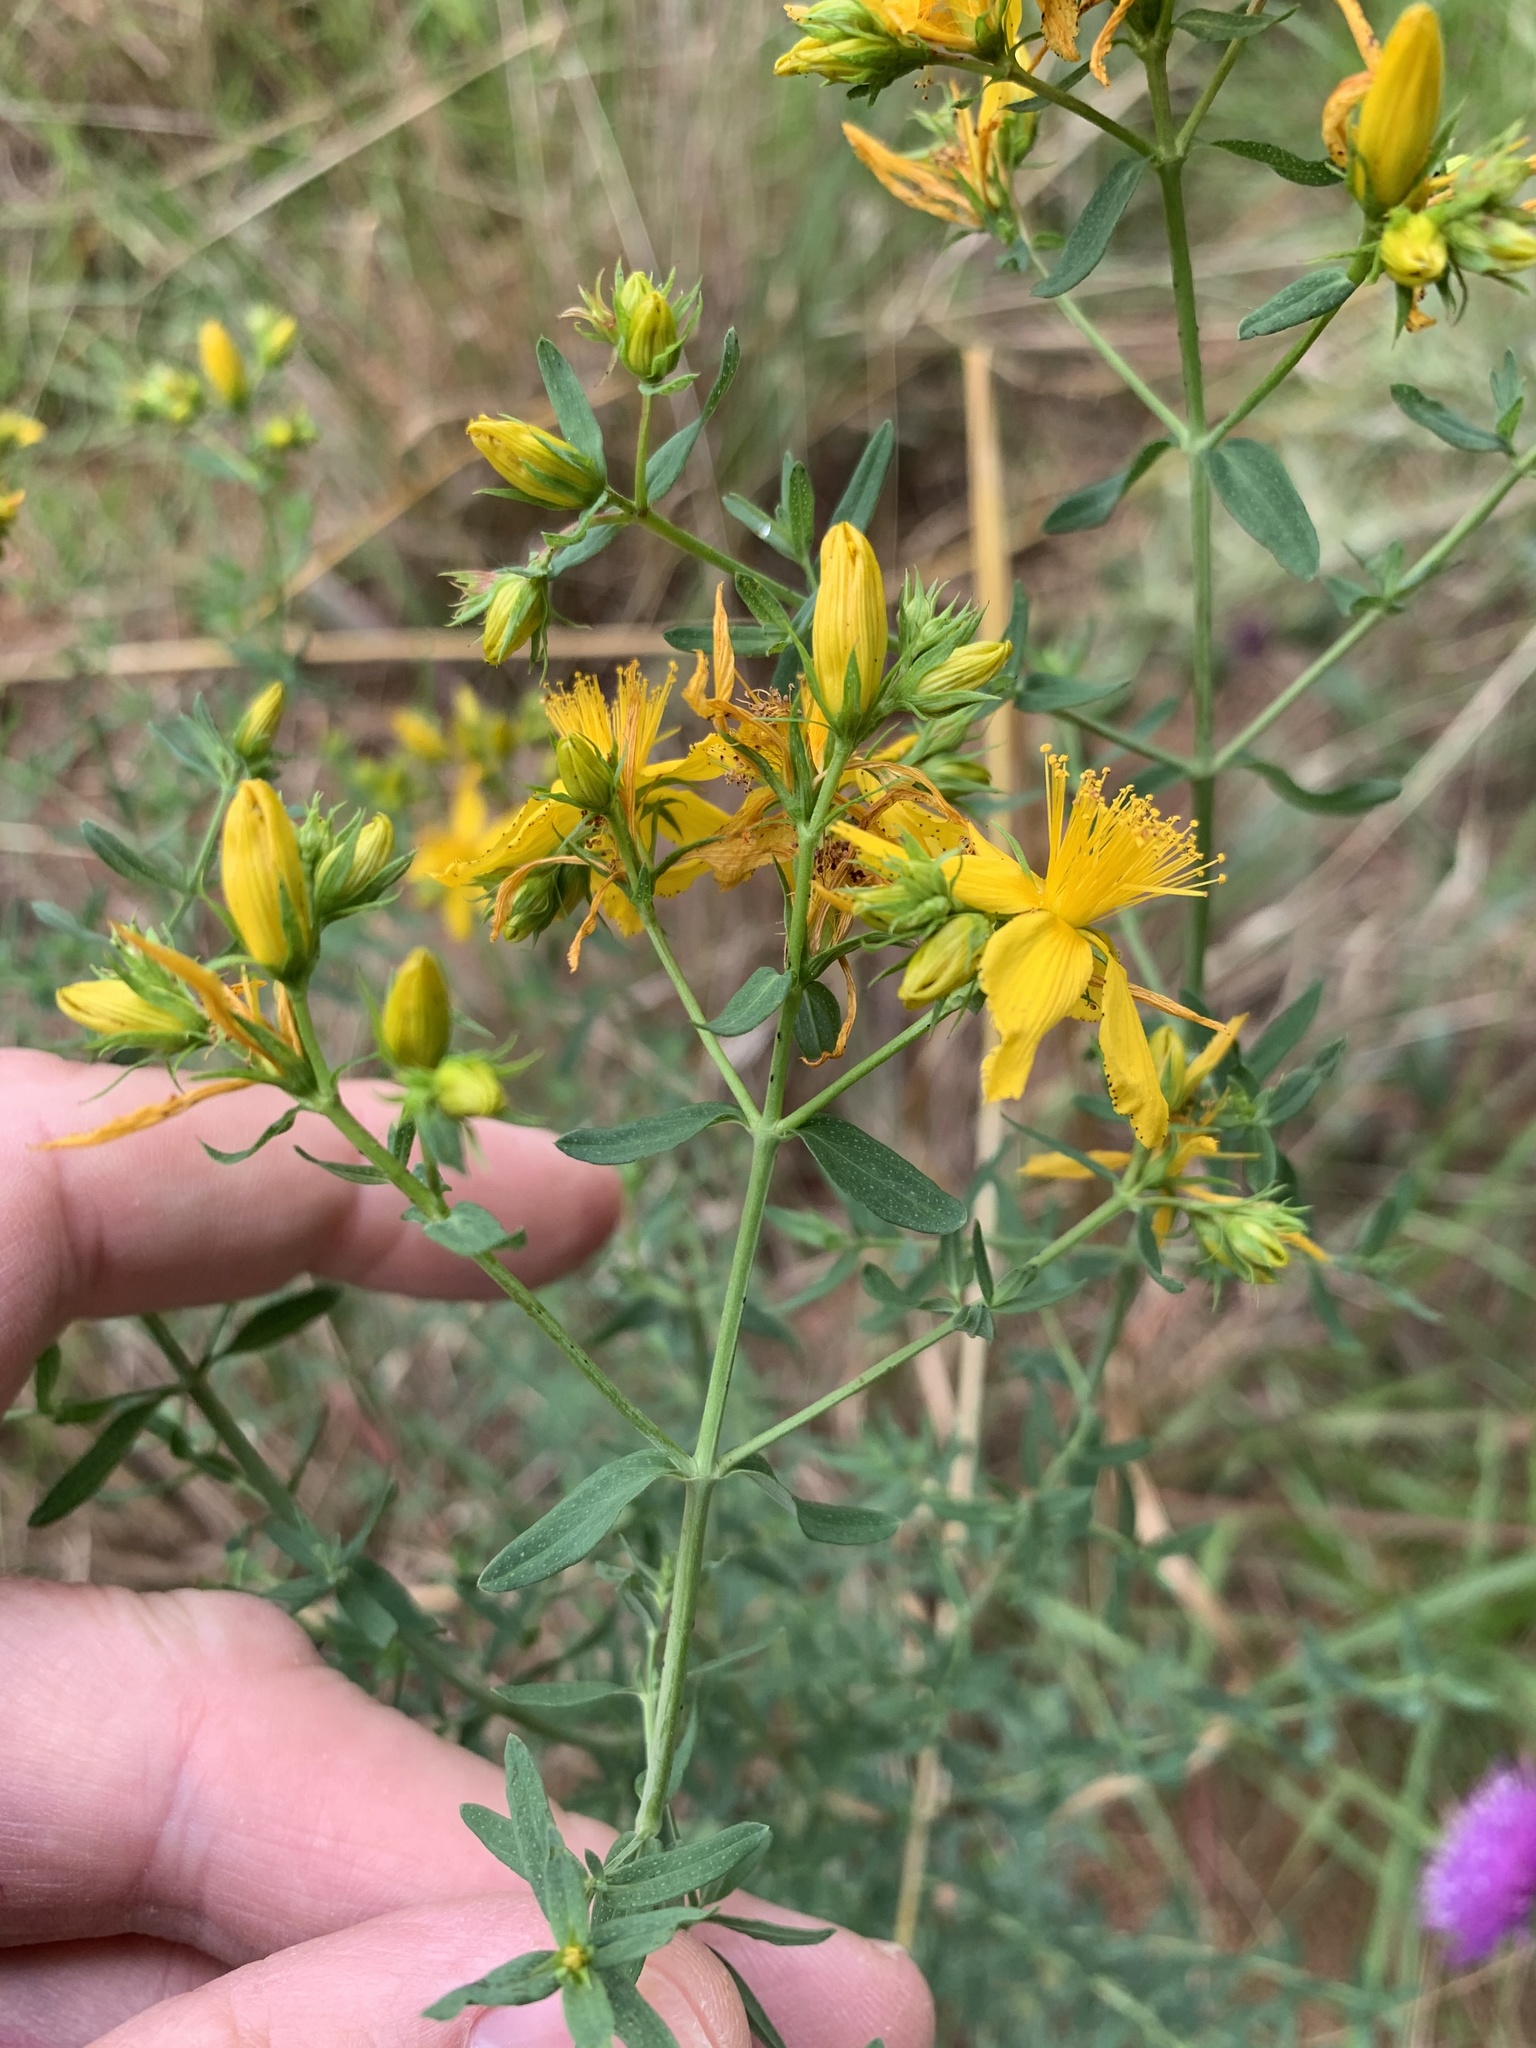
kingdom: Plantae
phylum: Tracheophyta
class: Magnoliopsida
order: Malpighiales
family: Hypericaceae
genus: Hypericum
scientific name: Hypericum perforatum
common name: Common st. johnswort
